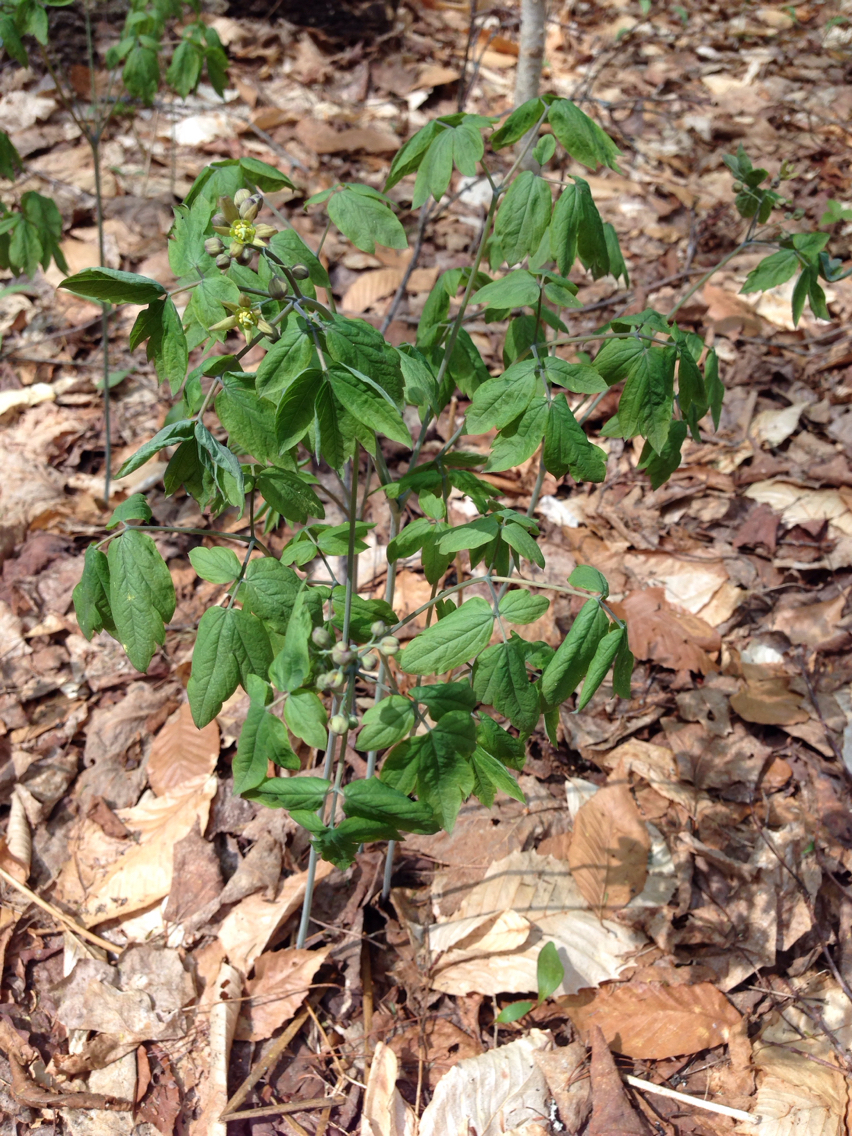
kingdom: Plantae
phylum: Tracheophyta
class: Magnoliopsida
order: Ranunculales
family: Berberidaceae
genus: Caulophyllum
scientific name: Caulophyllum thalictroides
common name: Blue cohosh
